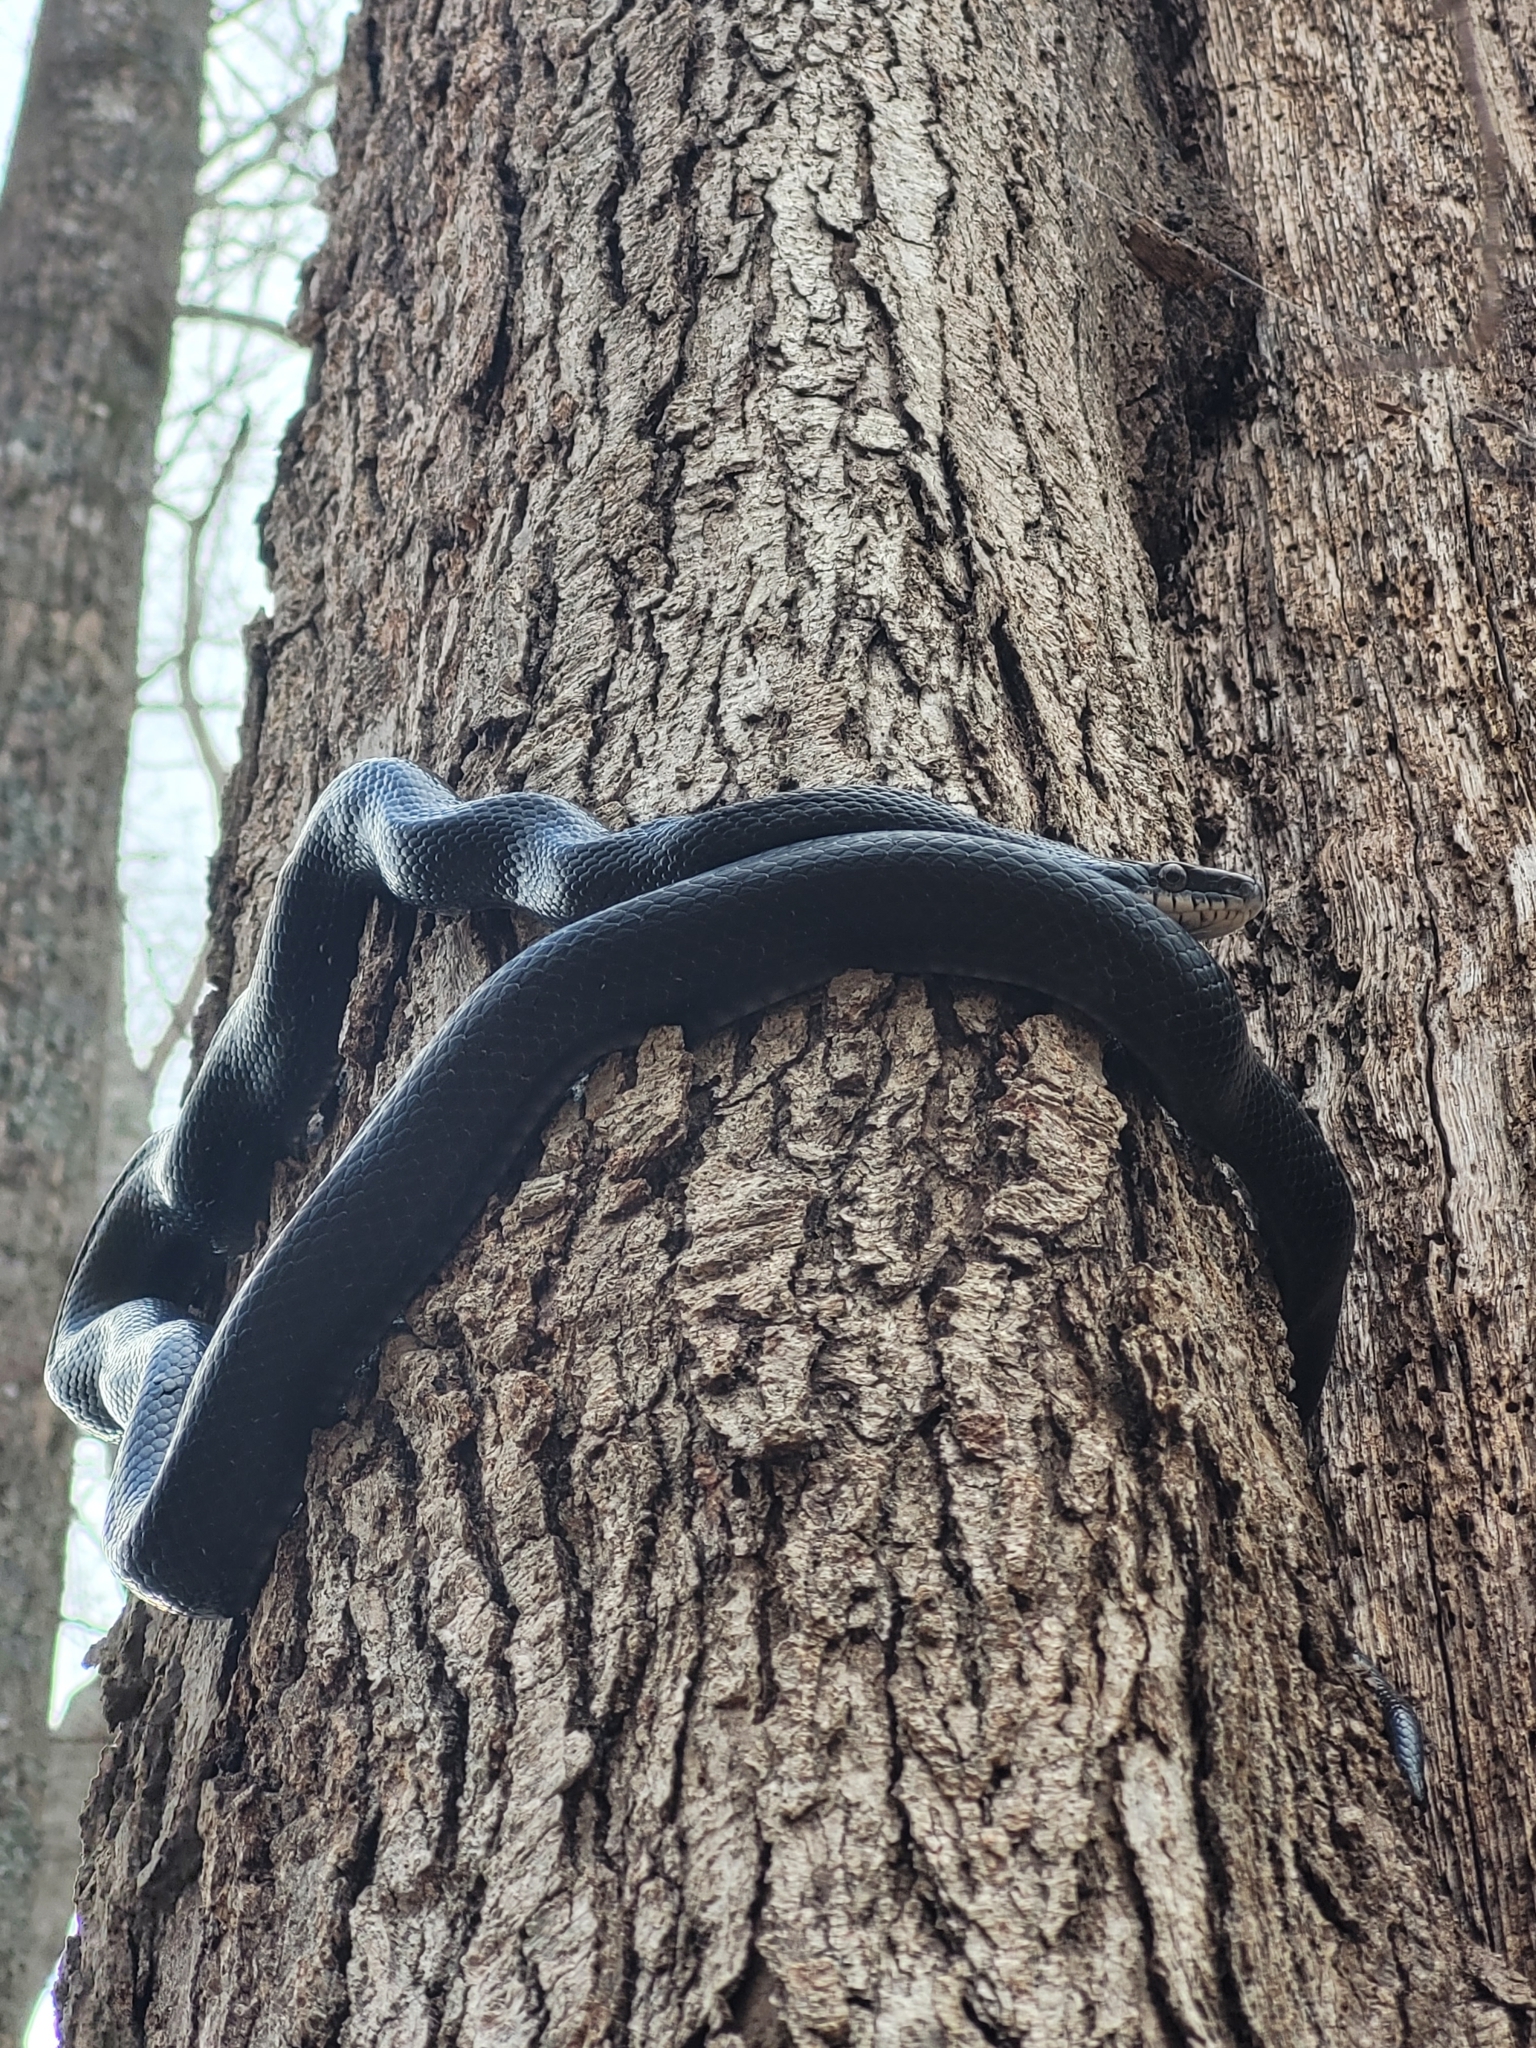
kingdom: Animalia
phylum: Chordata
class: Squamata
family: Colubridae
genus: Pantherophis
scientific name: Pantherophis alleghaniensis
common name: Eastern rat snake
